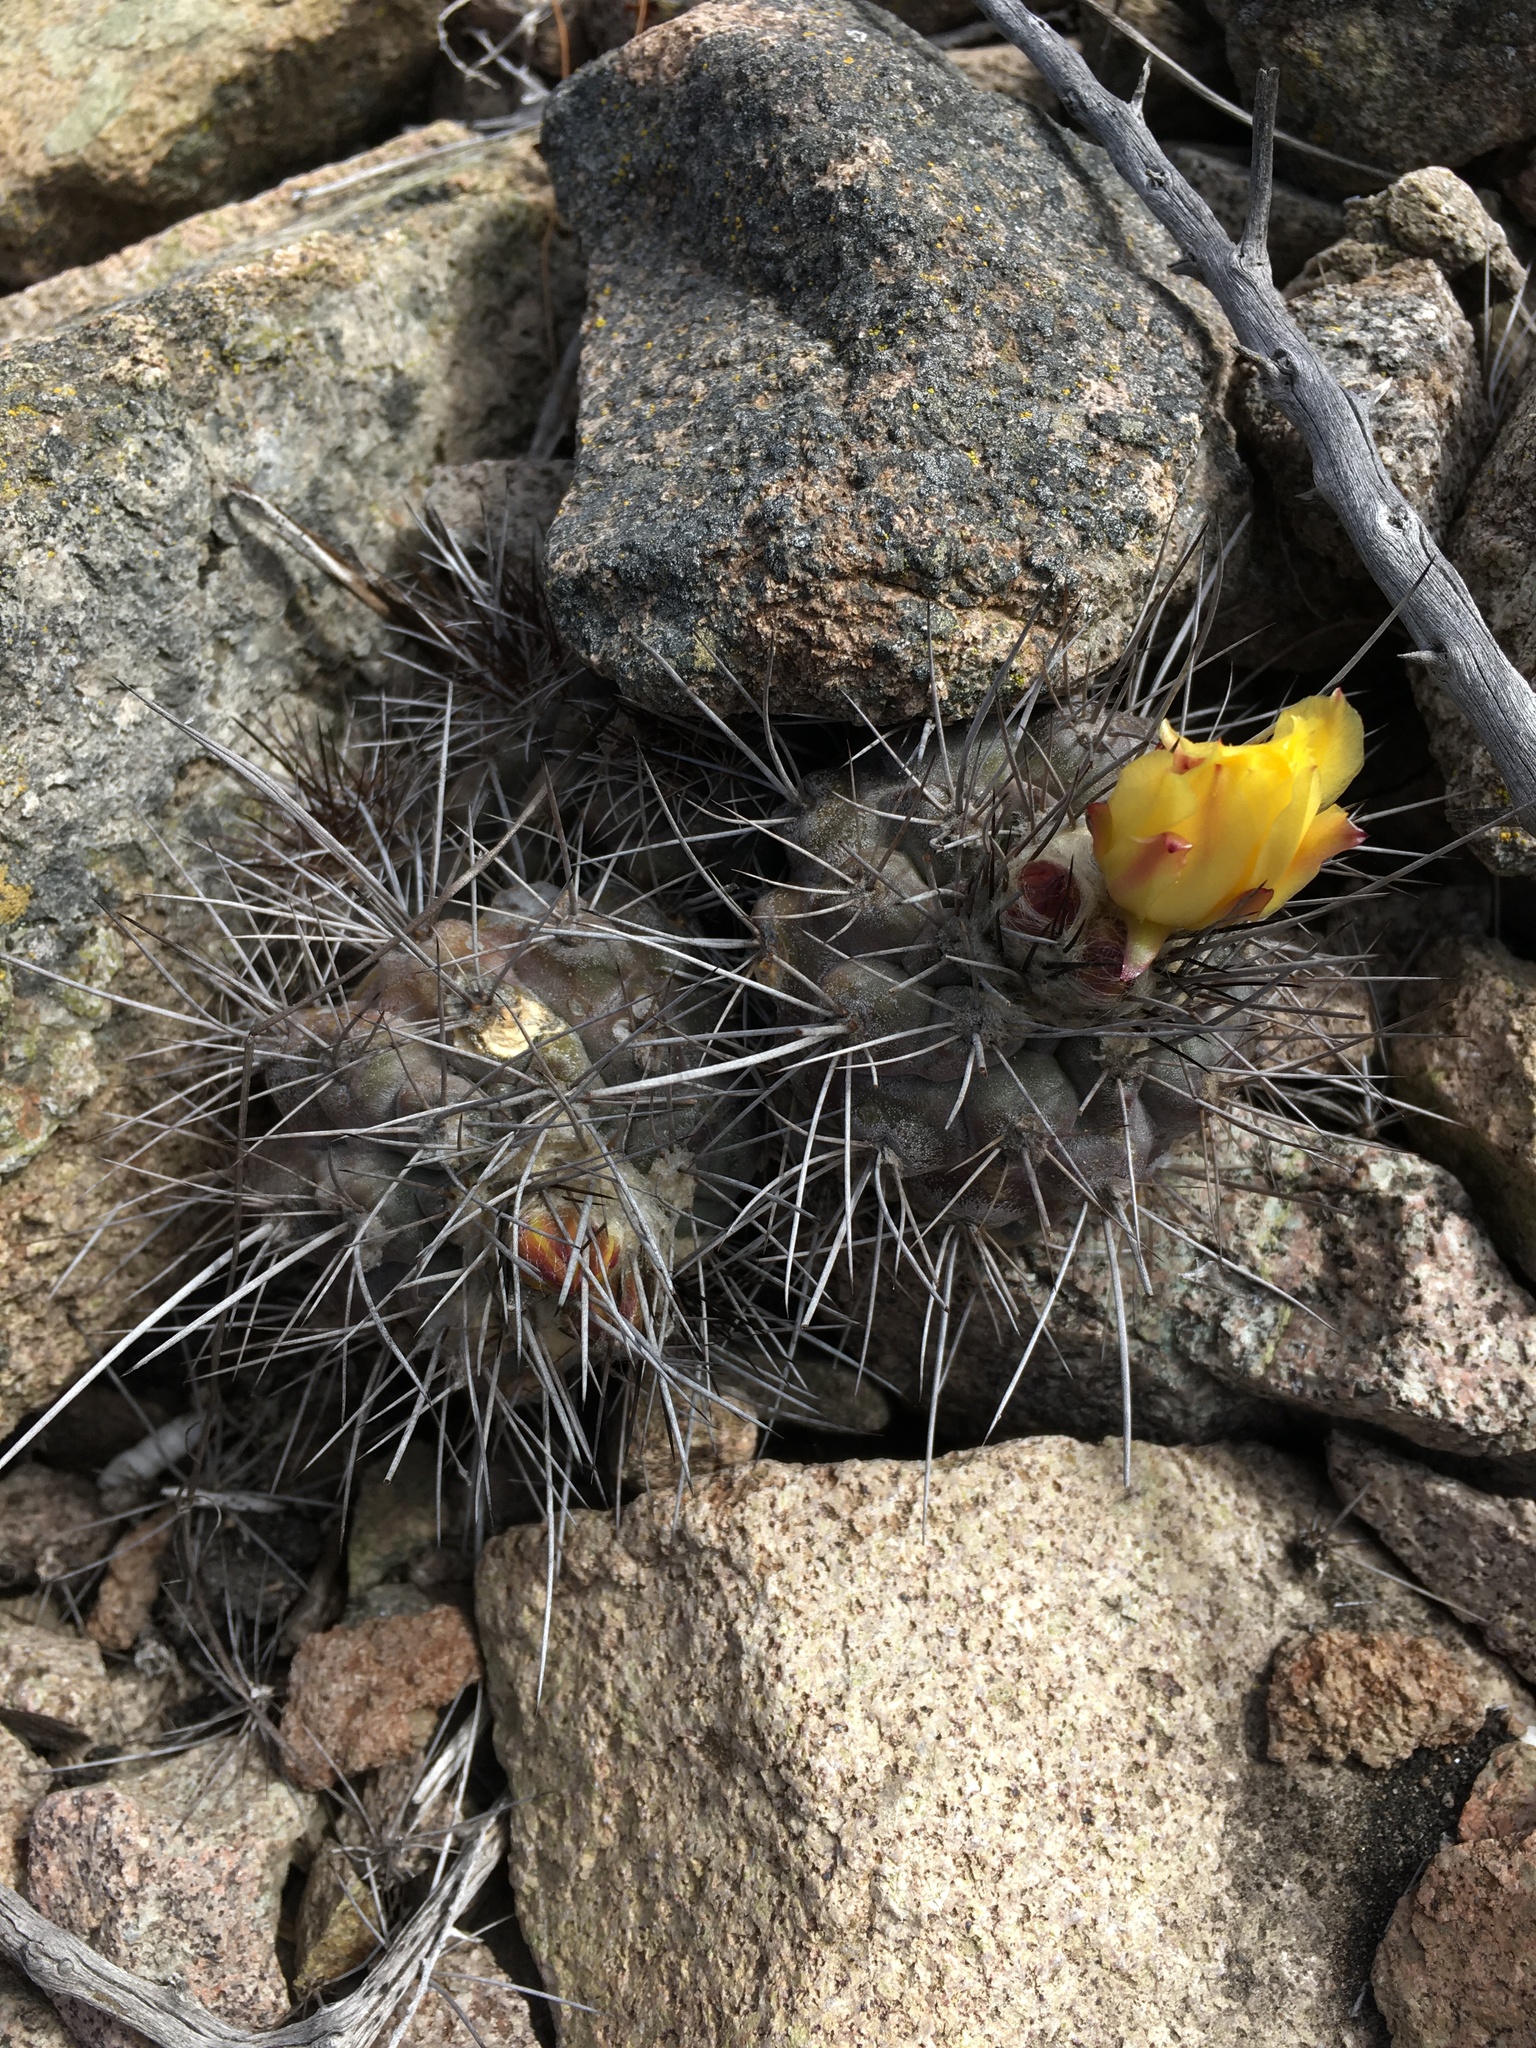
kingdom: Plantae
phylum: Tracheophyta
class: Magnoliopsida
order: Caryophyllales
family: Cactaceae
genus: Copiapoa
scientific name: Copiapoa humilis
